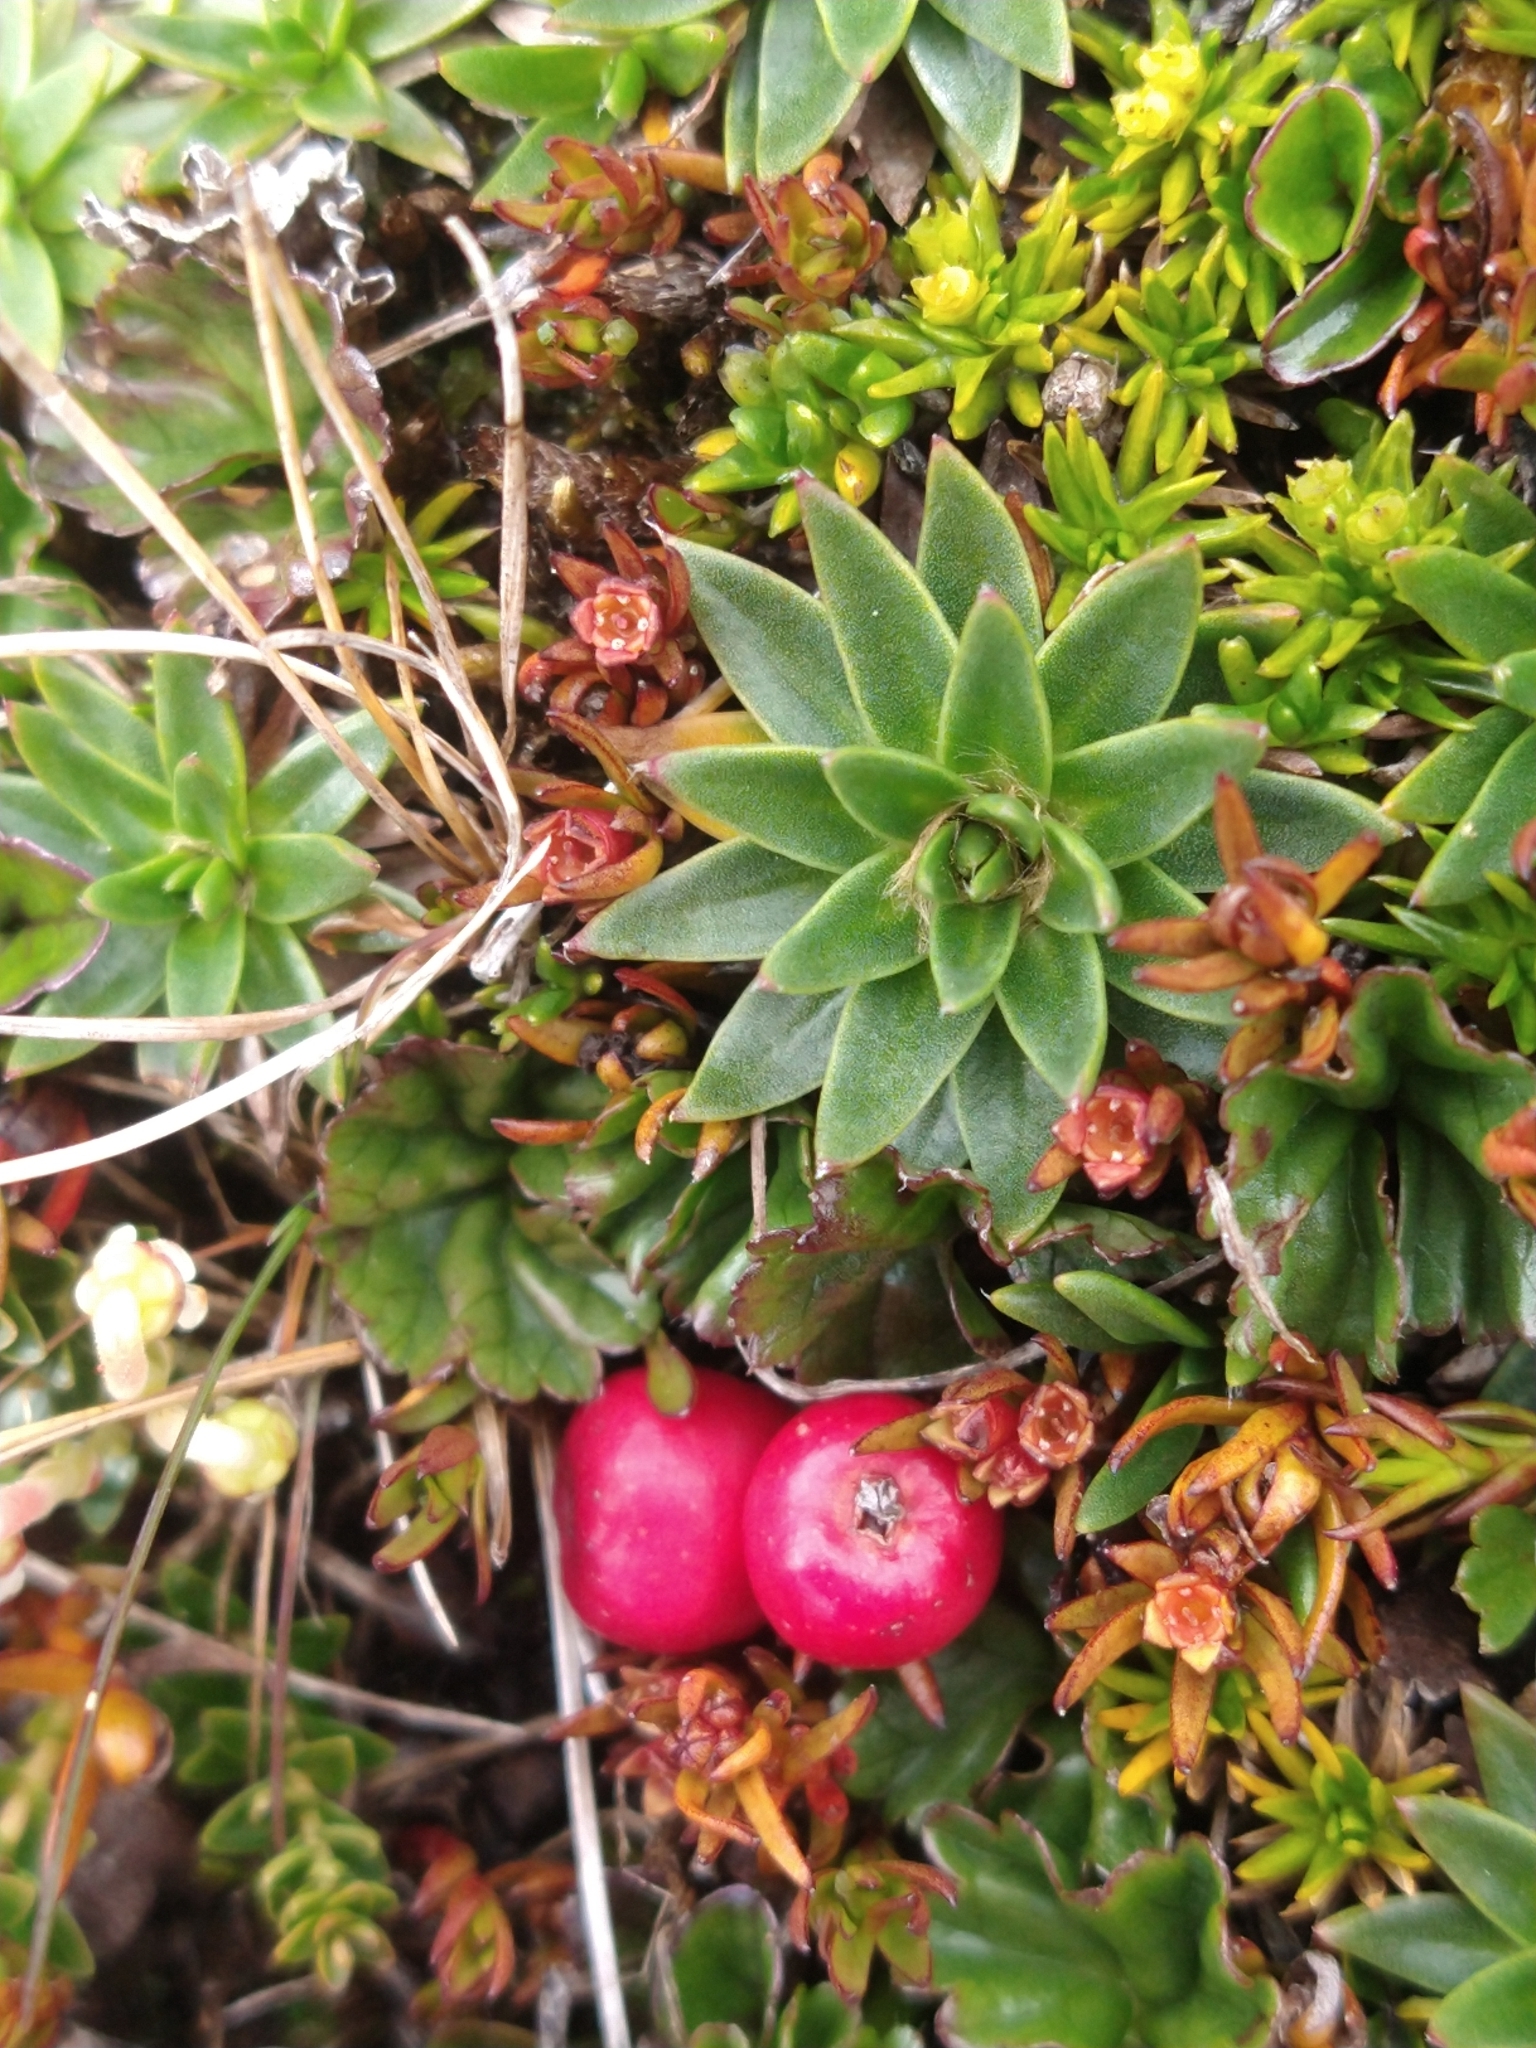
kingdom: Plantae
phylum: Tracheophyta
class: Magnoliopsida
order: Ericales
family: Ericaceae
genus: Gaultheria
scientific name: Gaultheria pumila
